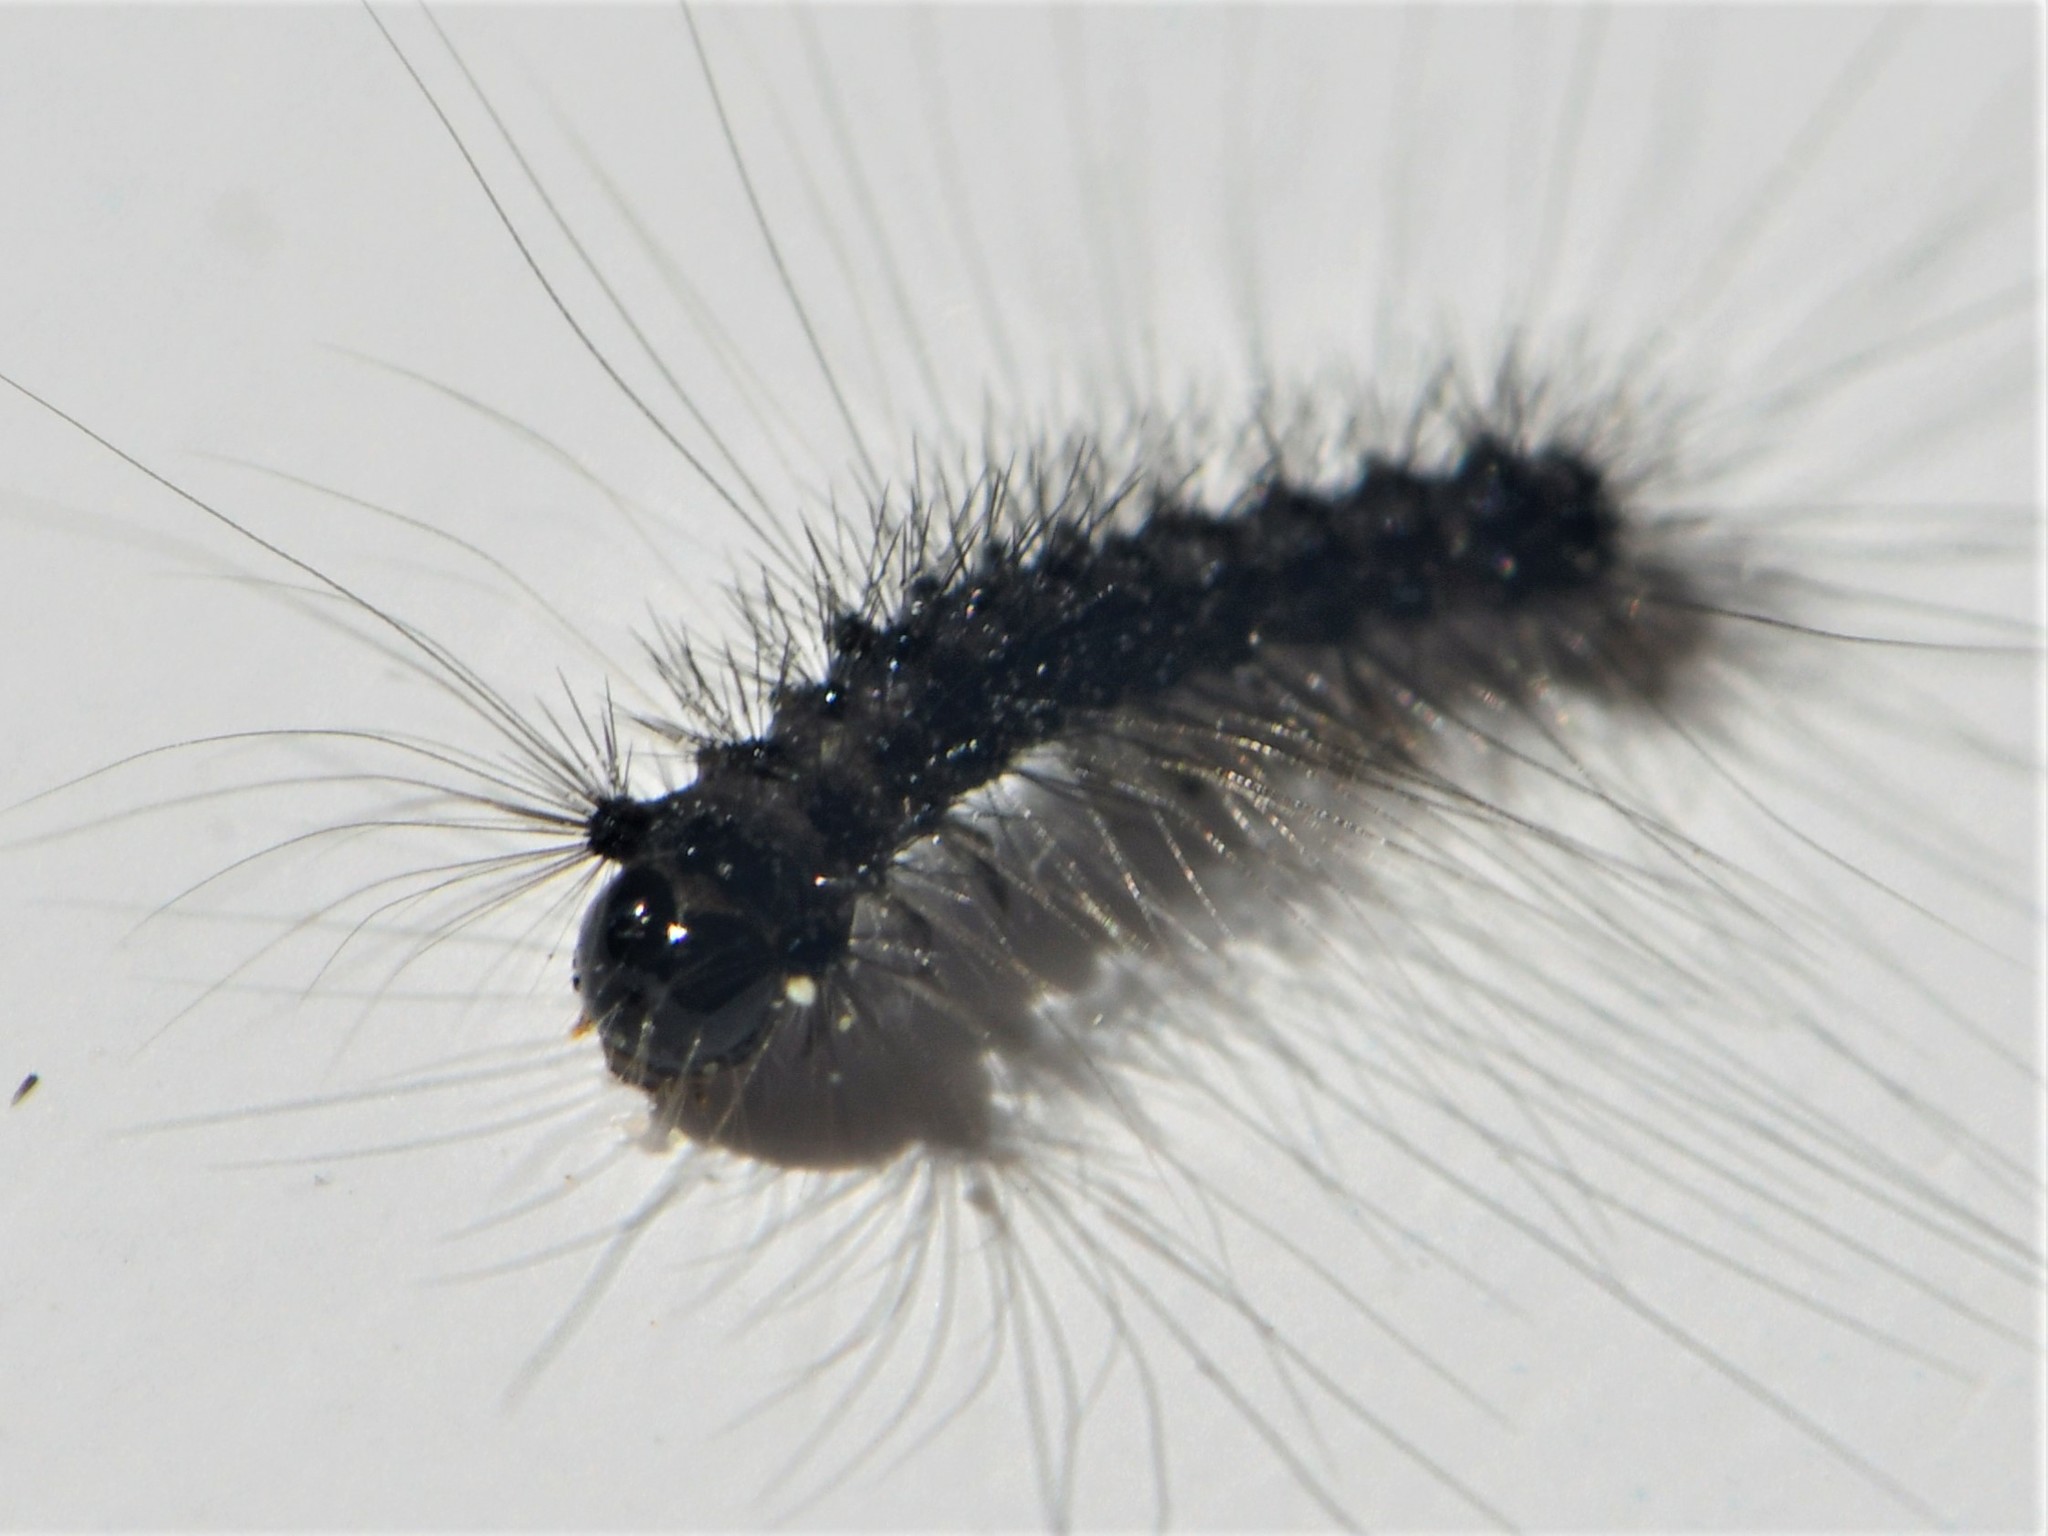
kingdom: Animalia
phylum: Arthropoda
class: Insecta
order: Lepidoptera
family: Erebidae
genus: Lymantria
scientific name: Lymantria dispar
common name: Gypsy moth
